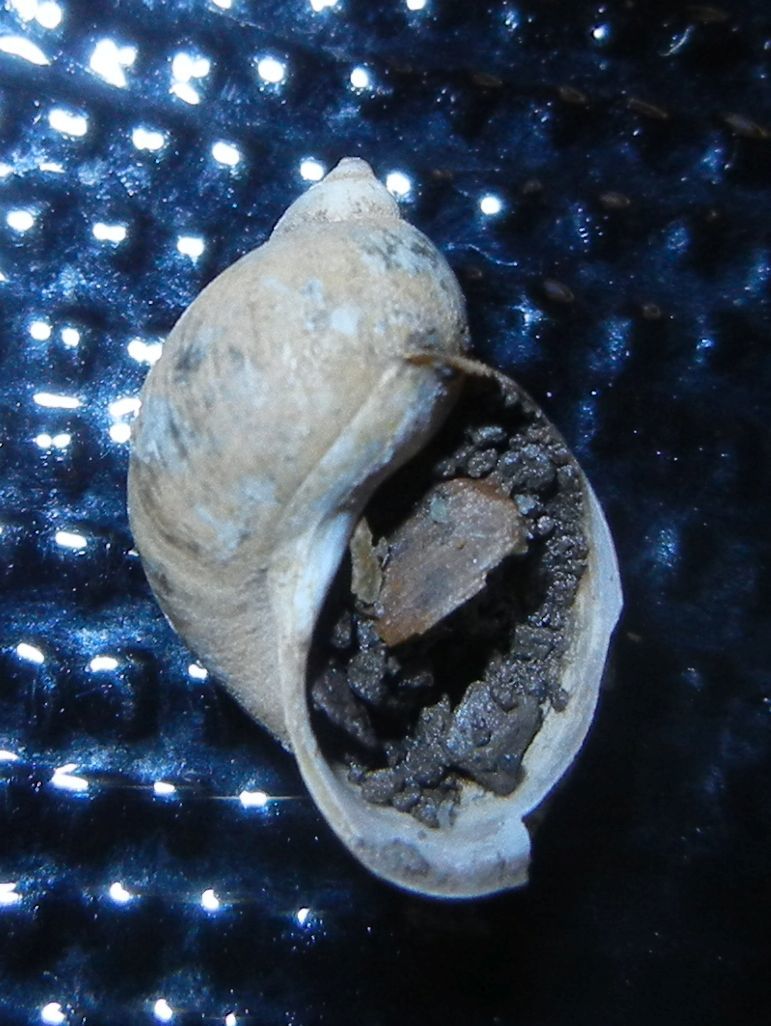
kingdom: Animalia
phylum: Mollusca
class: Gastropoda
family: Lymnaeidae
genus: Ampullaceana
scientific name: Ampullaceana balthica
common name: Wandering pond snail
